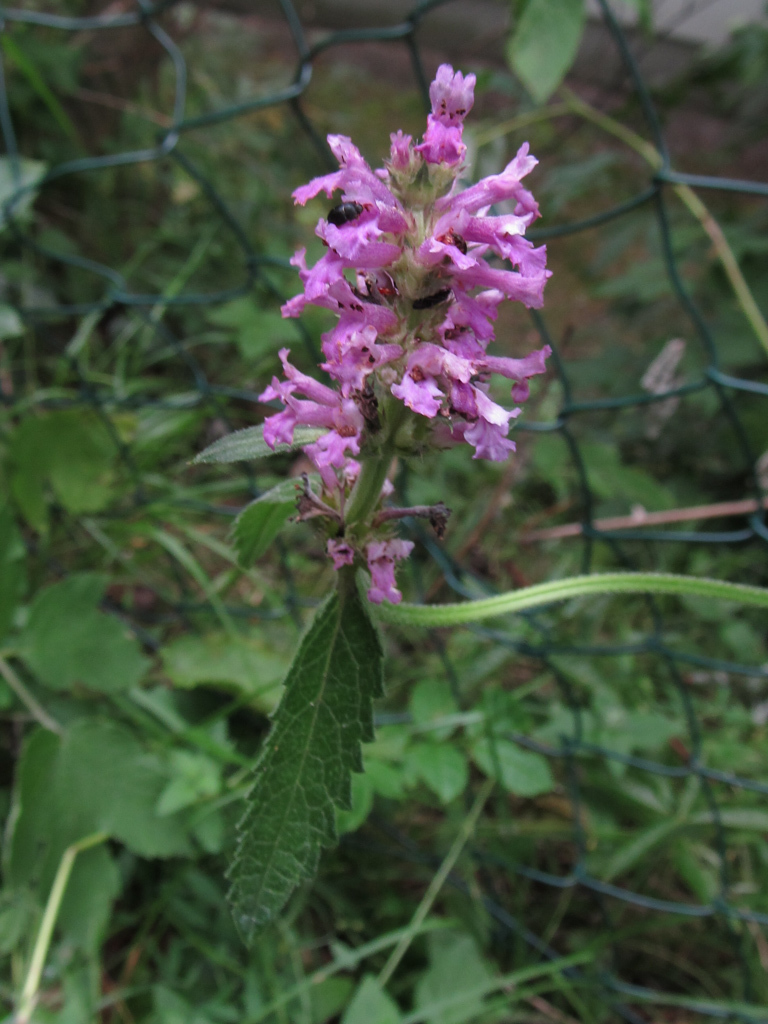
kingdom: Plantae
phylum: Tracheophyta
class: Magnoliopsida
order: Lamiales
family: Lamiaceae
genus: Betonica
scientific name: Betonica officinalis
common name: Bishop's-wort
